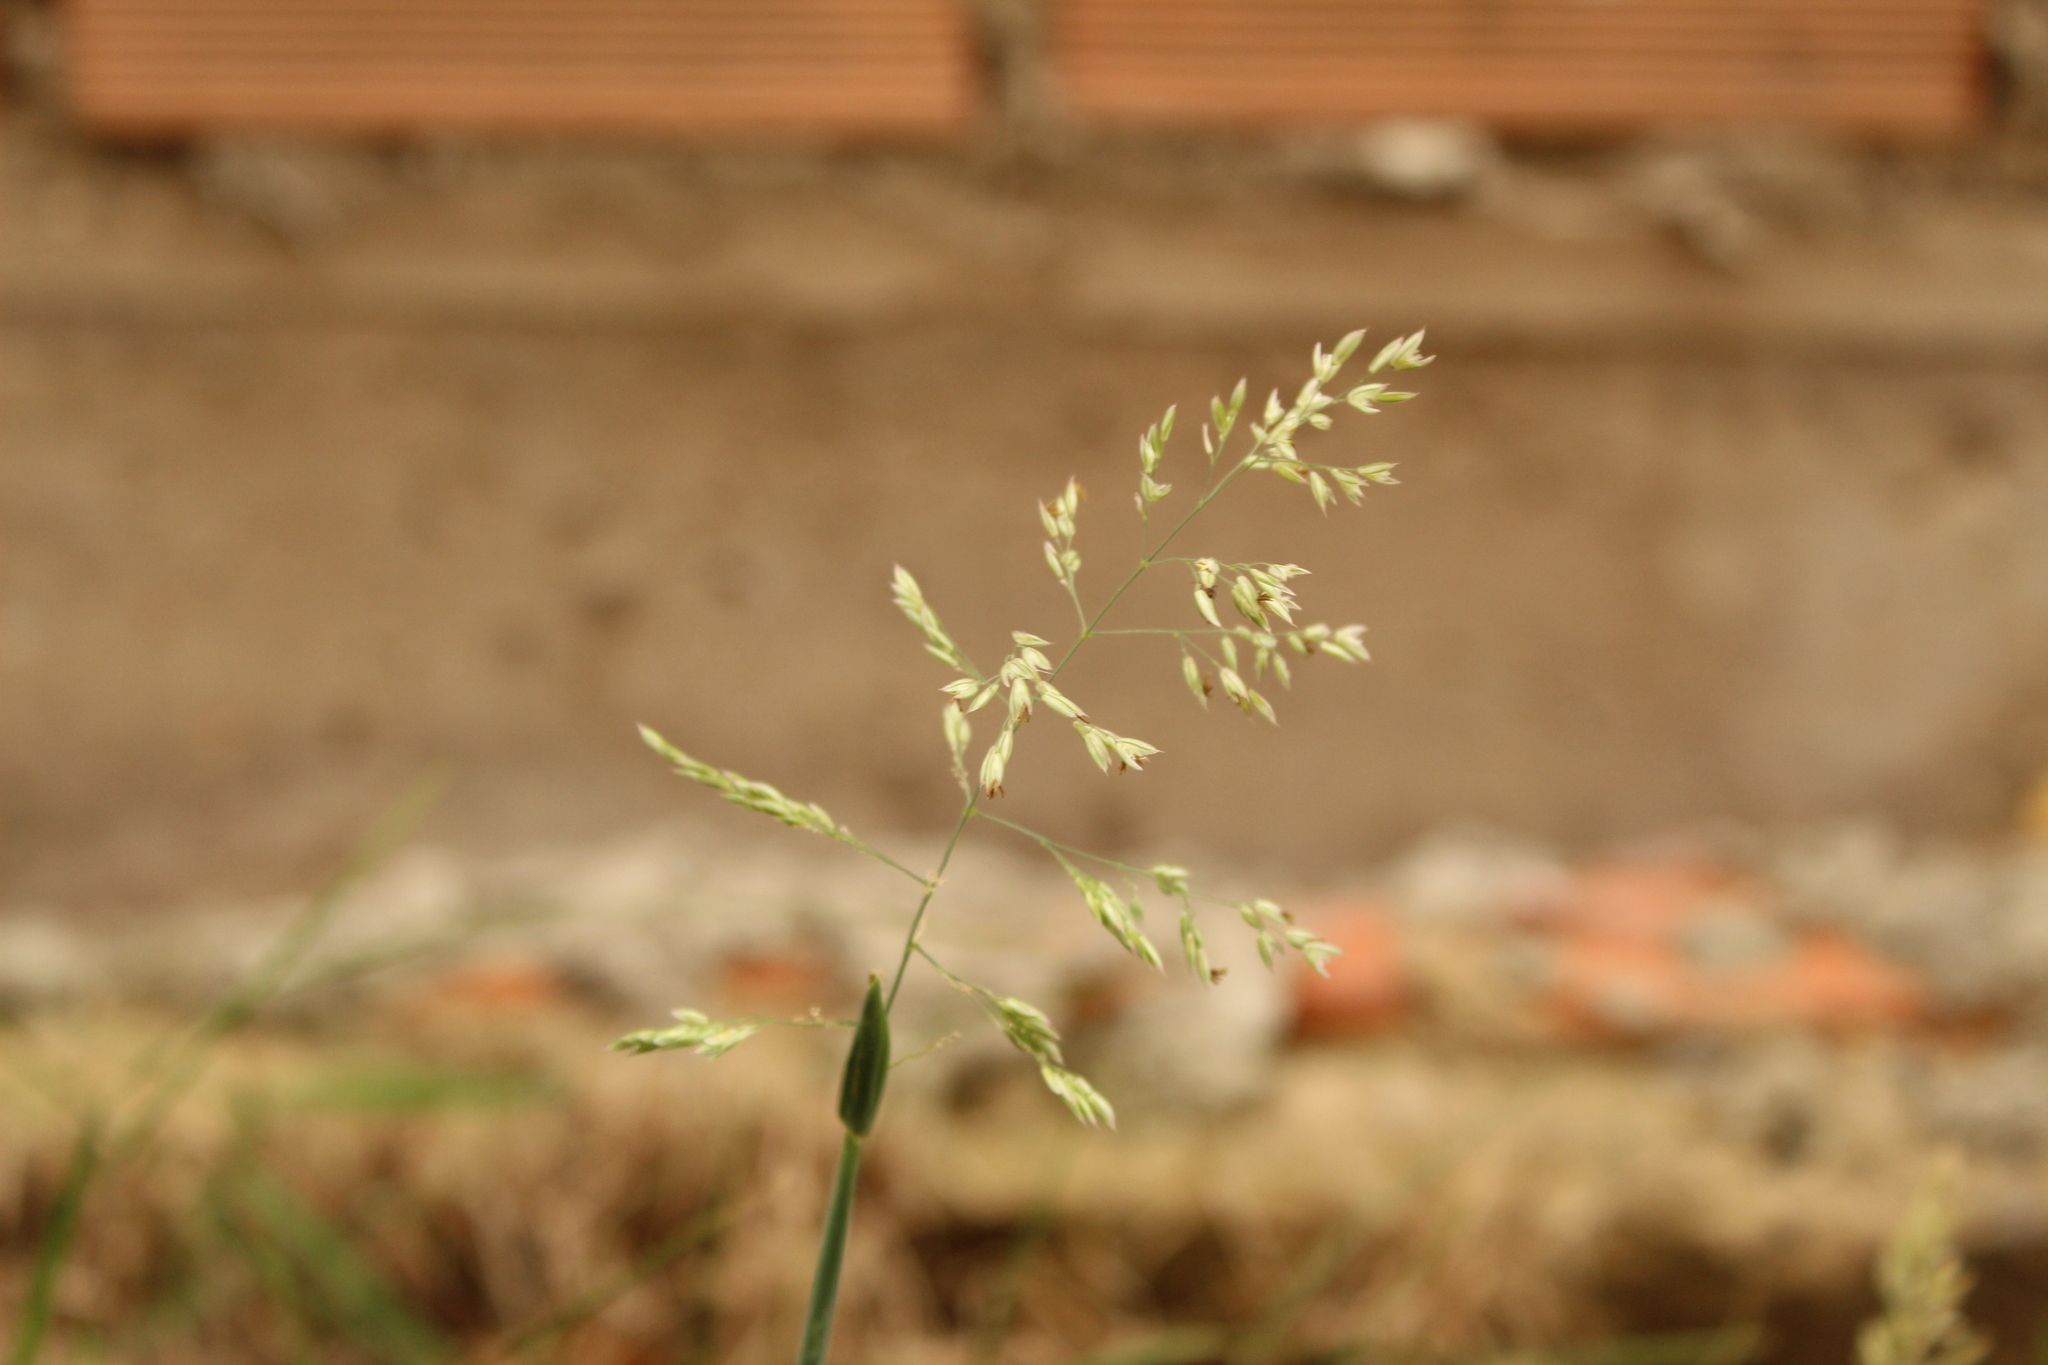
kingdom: Plantae
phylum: Tracheophyta
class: Liliopsida
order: Poales
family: Poaceae
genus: Holcus
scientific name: Holcus lanatus
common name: Yorkshire-fog
